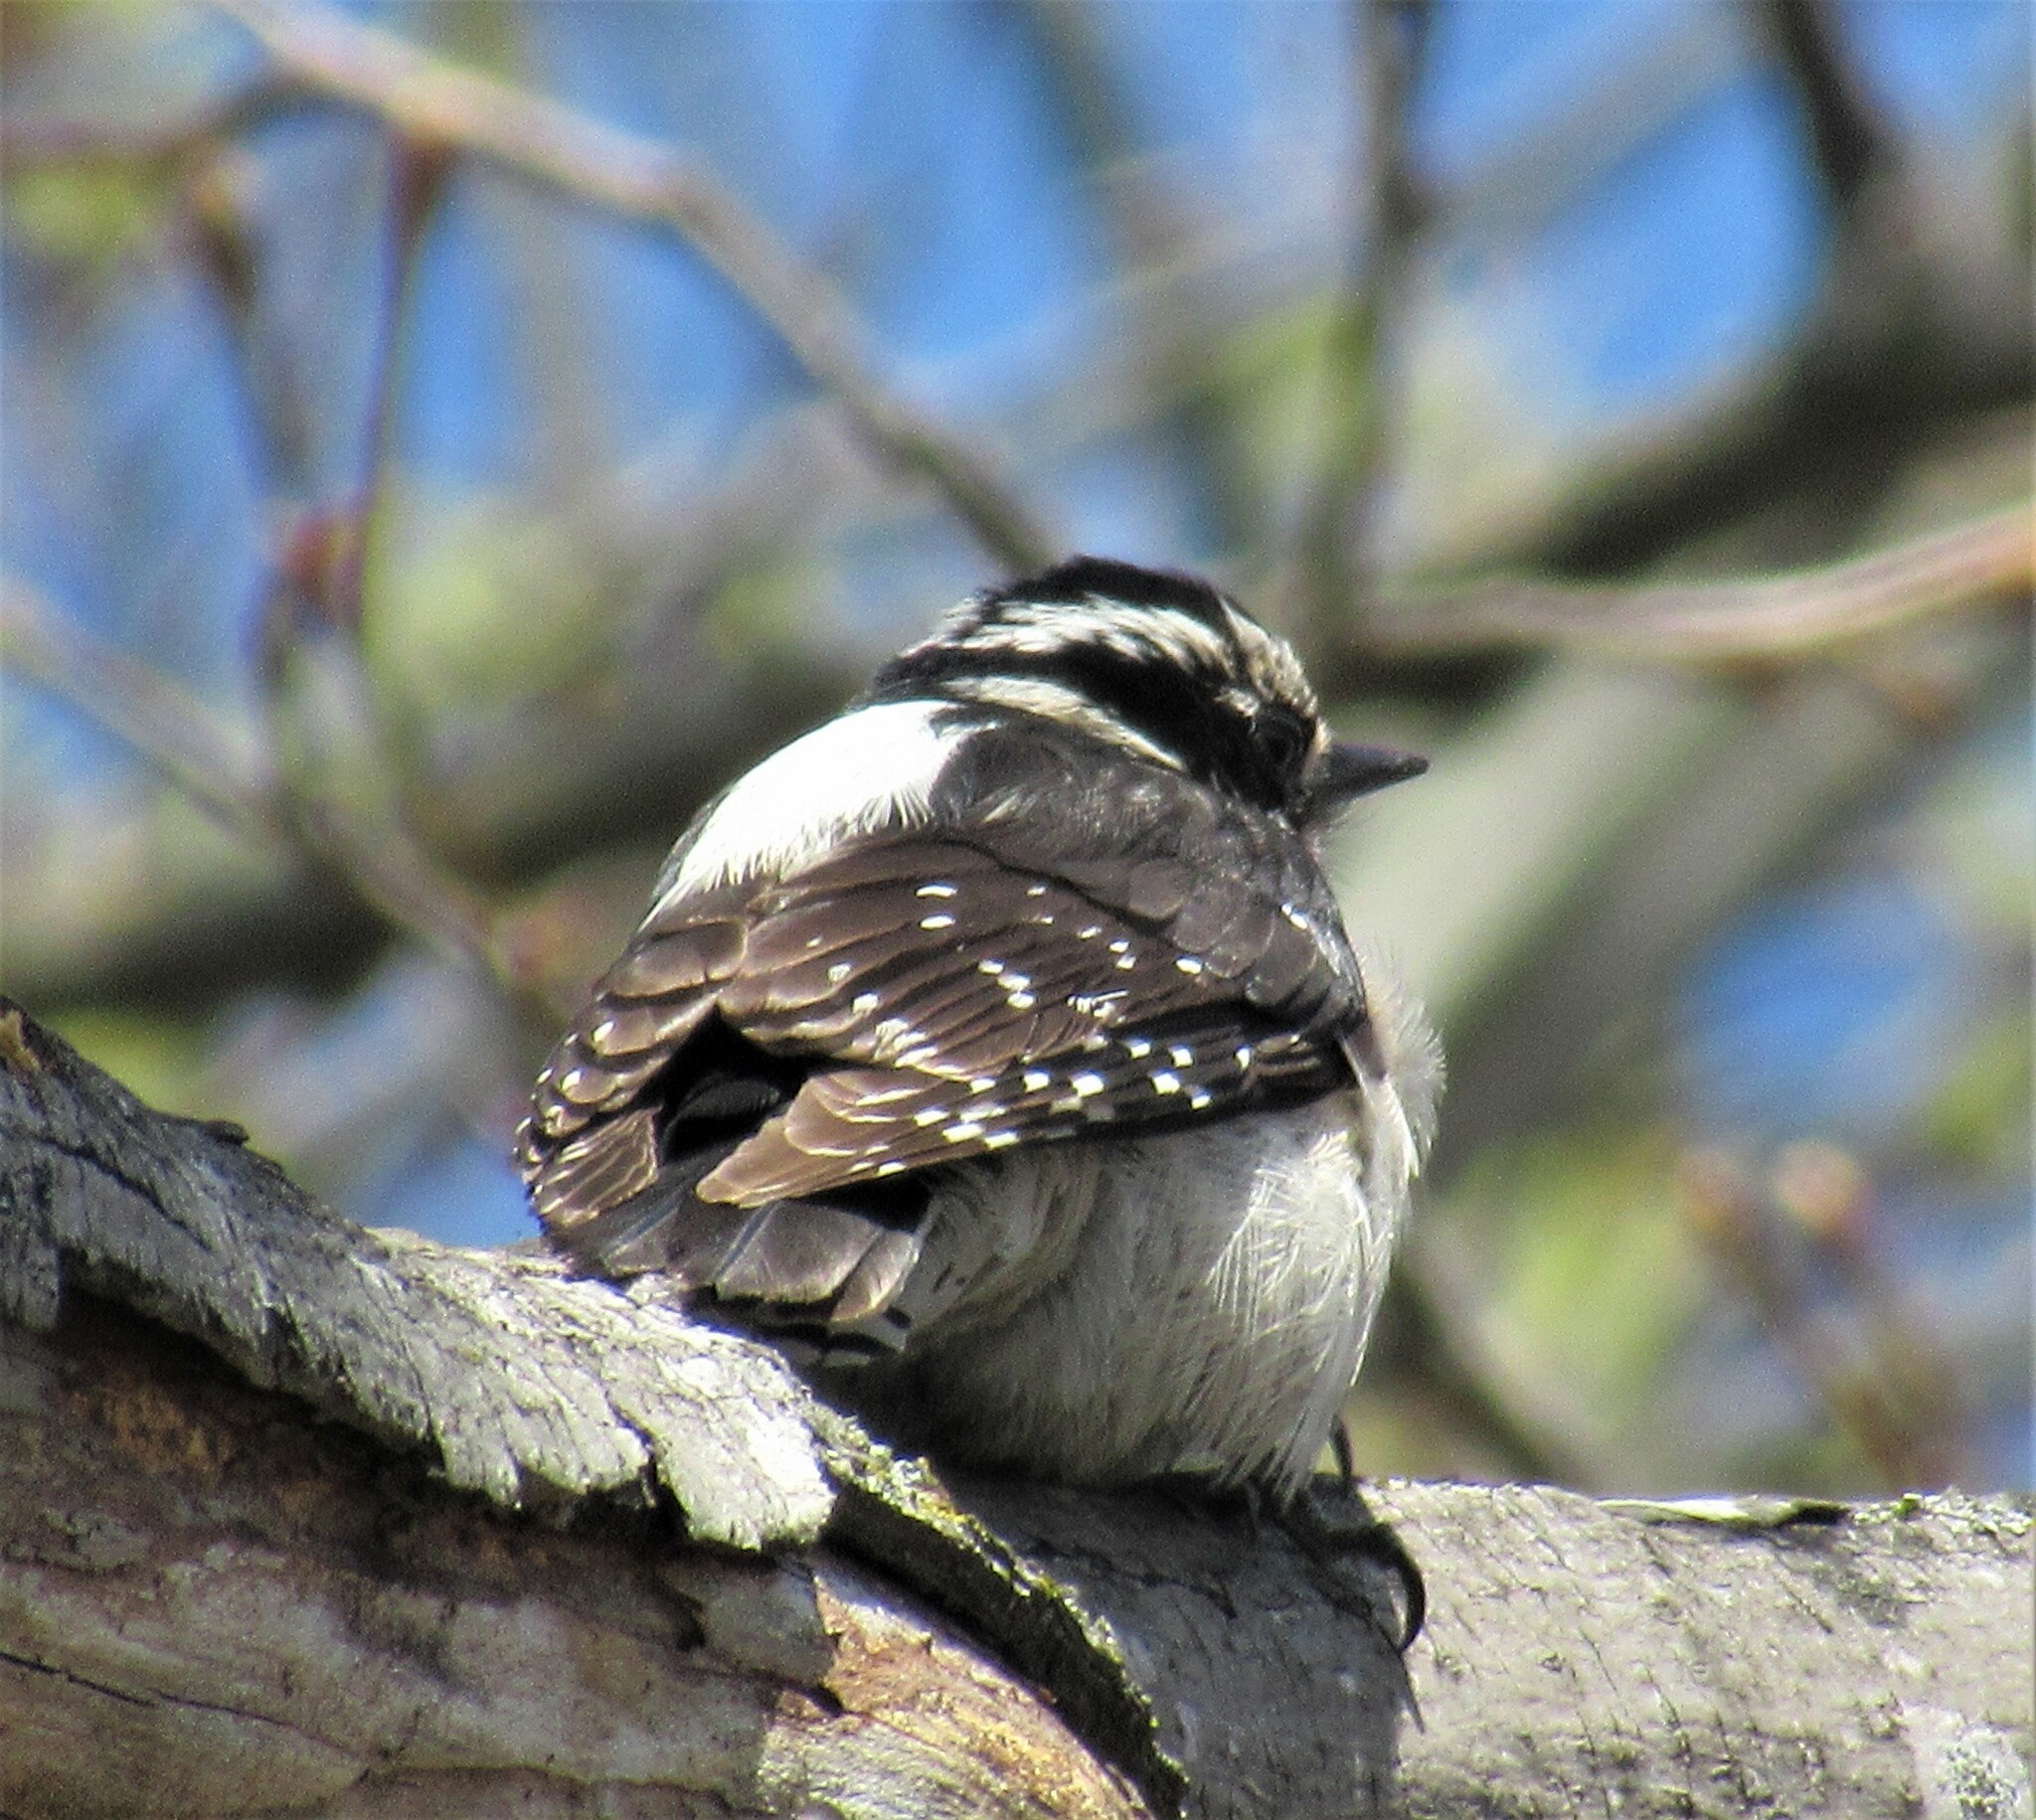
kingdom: Animalia
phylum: Chordata
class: Aves
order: Piciformes
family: Picidae
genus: Dryobates
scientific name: Dryobates pubescens
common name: Downy woodpecker
